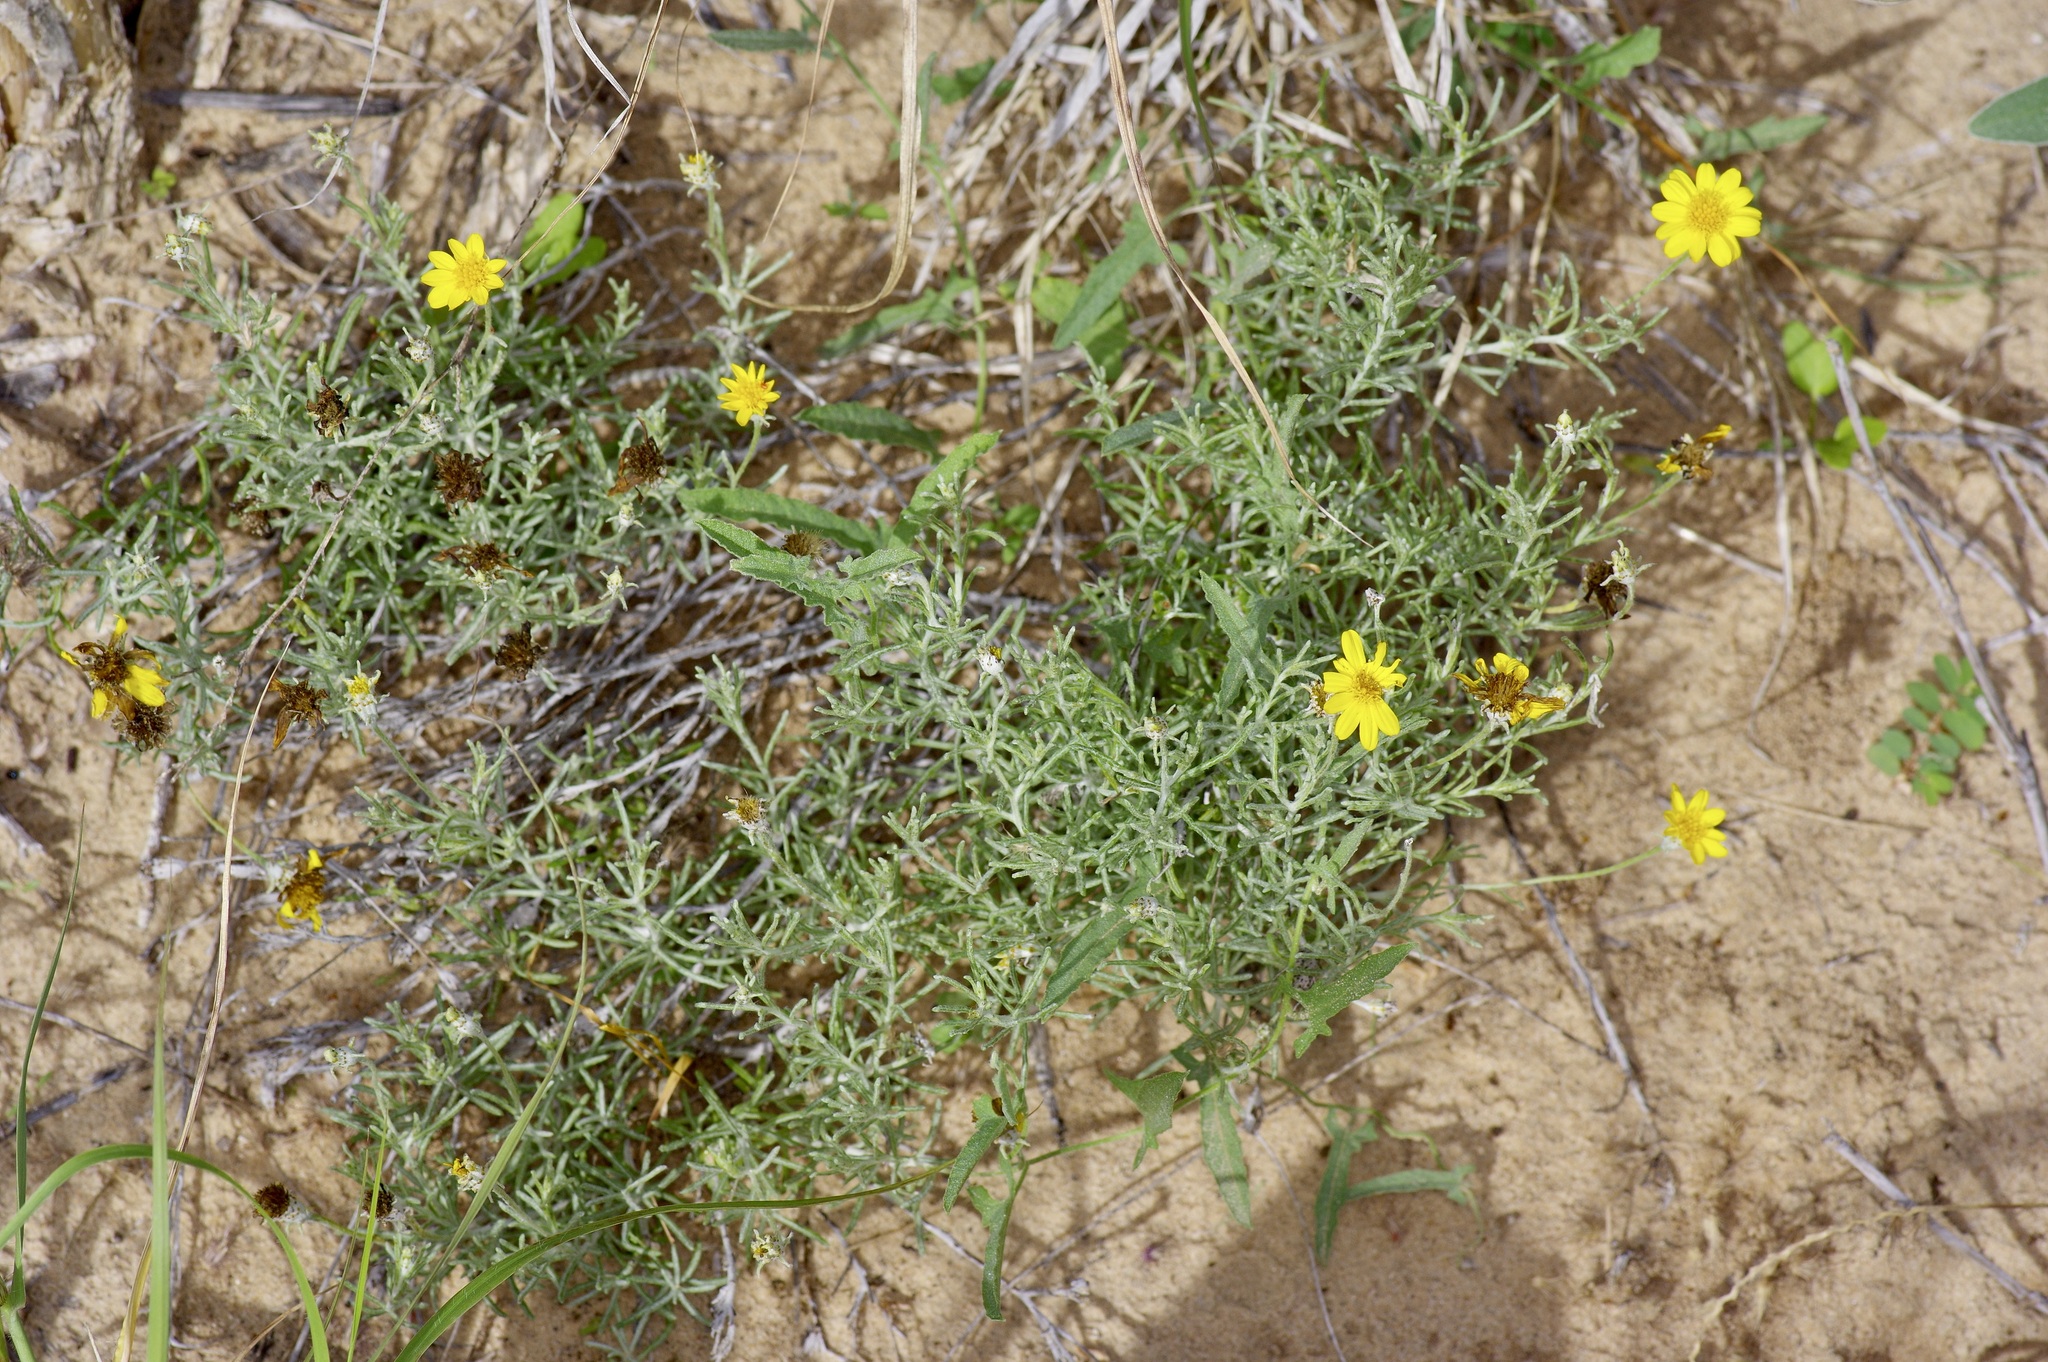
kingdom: Plantae
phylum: Tracheophyta
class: Magnoliopsida
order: Asterales
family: Asteraceae
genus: Thymophylla
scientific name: Thymophylla tephroleuca
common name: Ashy dogweed
